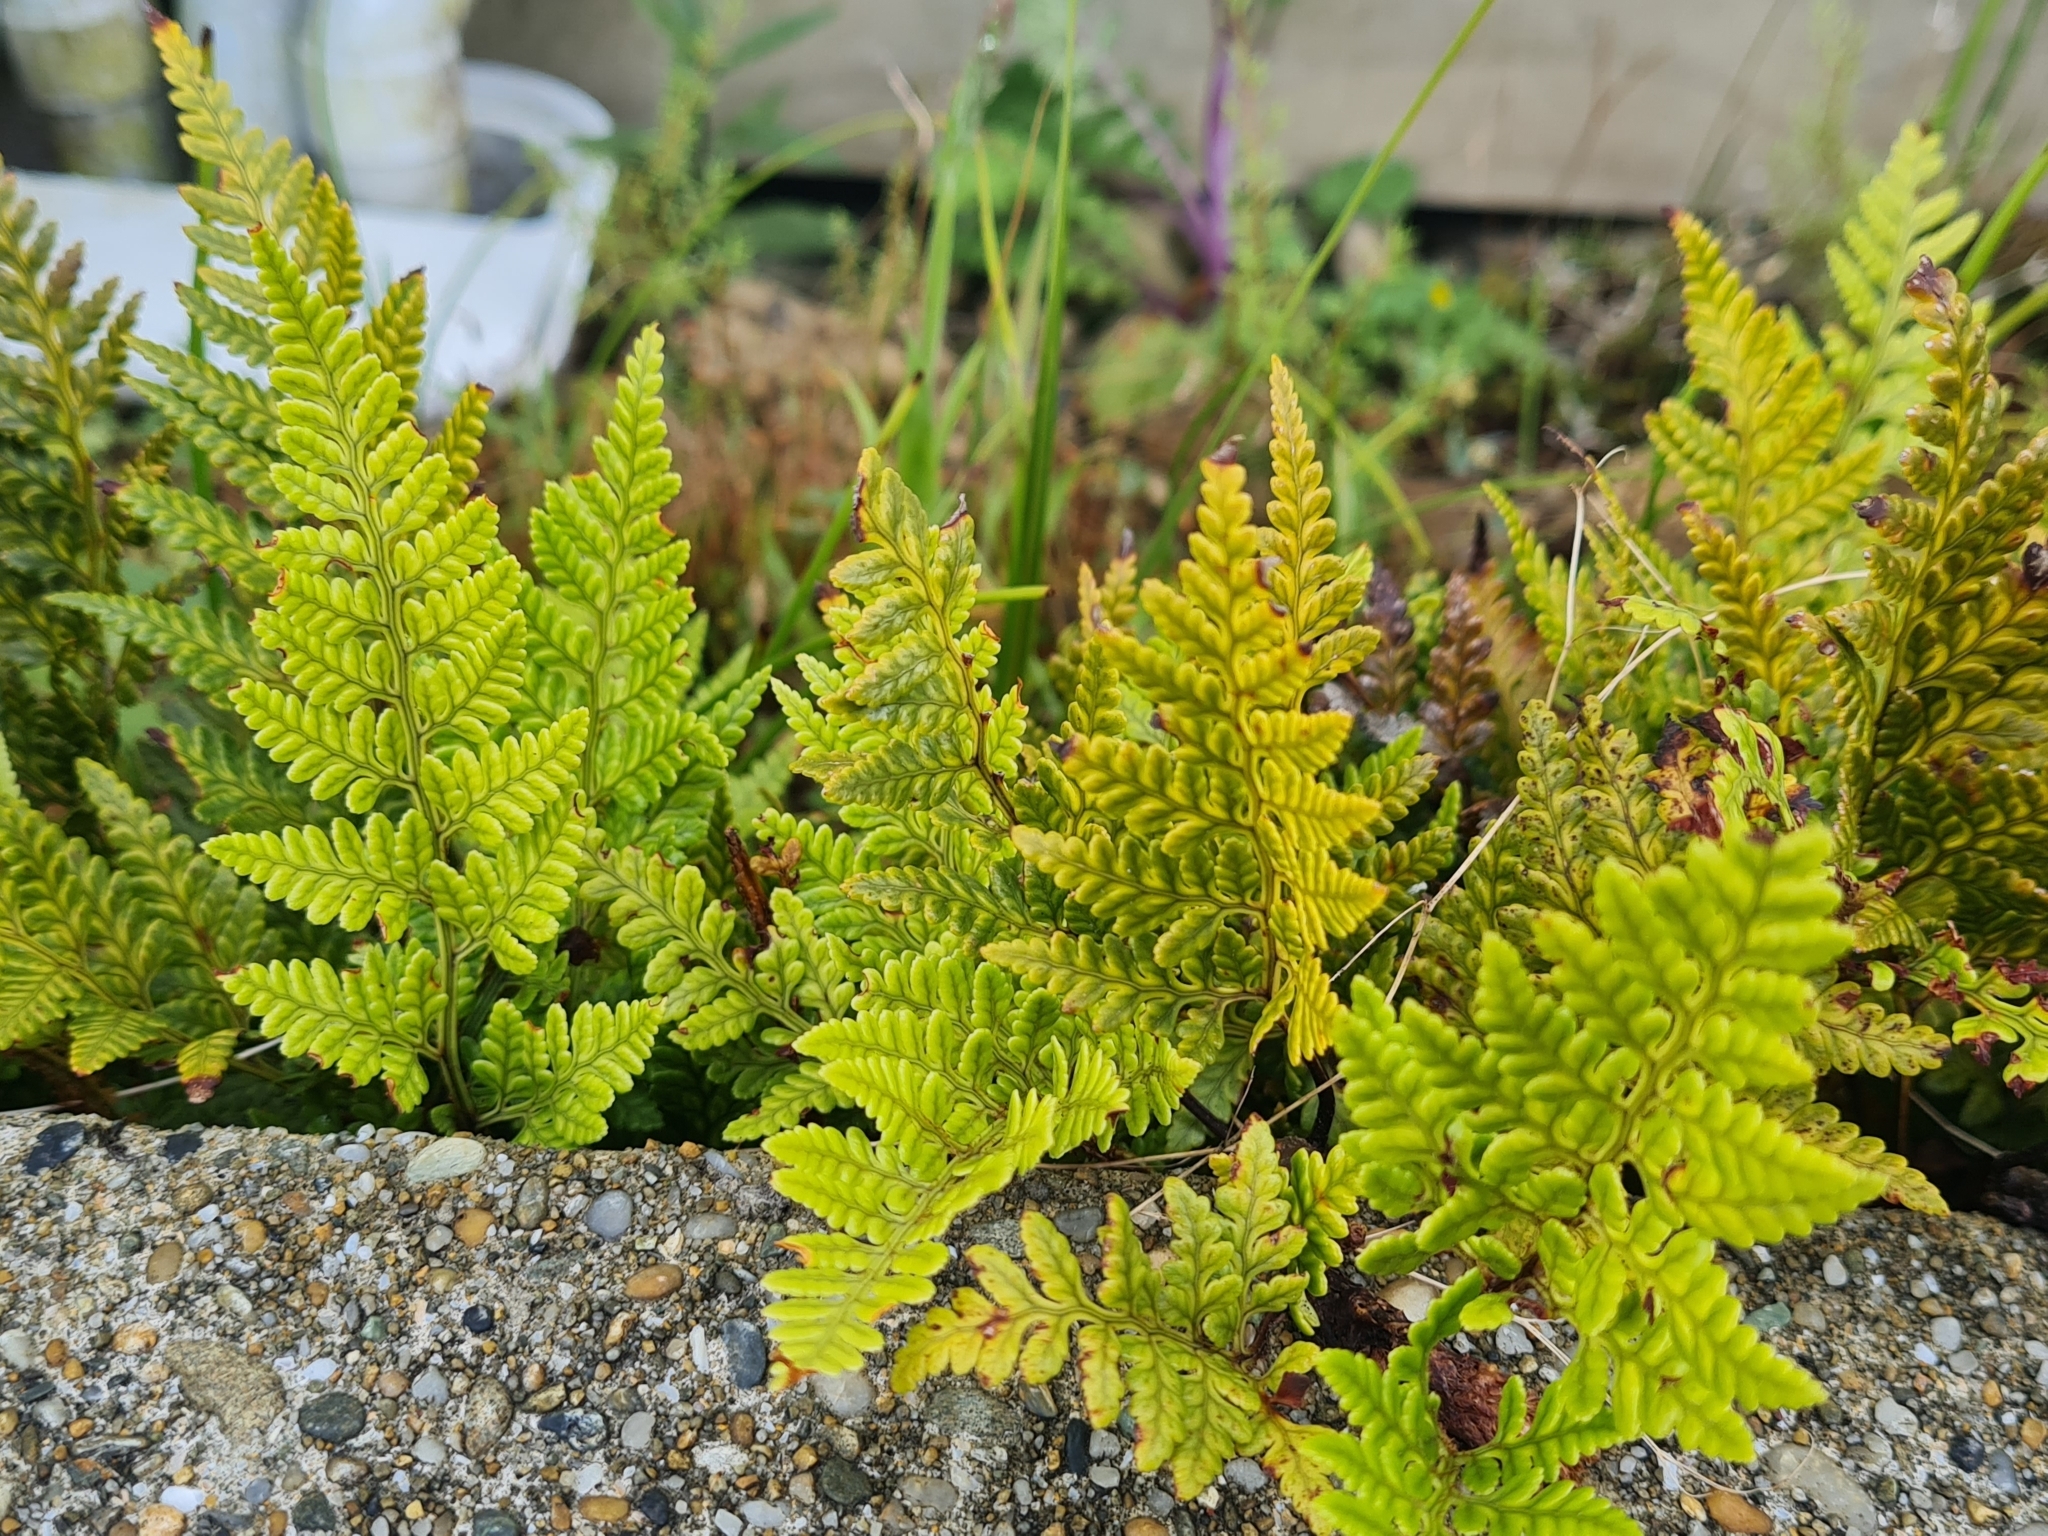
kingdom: Plantae
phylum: Tracheophyta
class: Polypodiopsida
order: Polypodiales
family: Dryopteridaceae
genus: Rumohra
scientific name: Rumohra adiantiformis
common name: Leather fern
